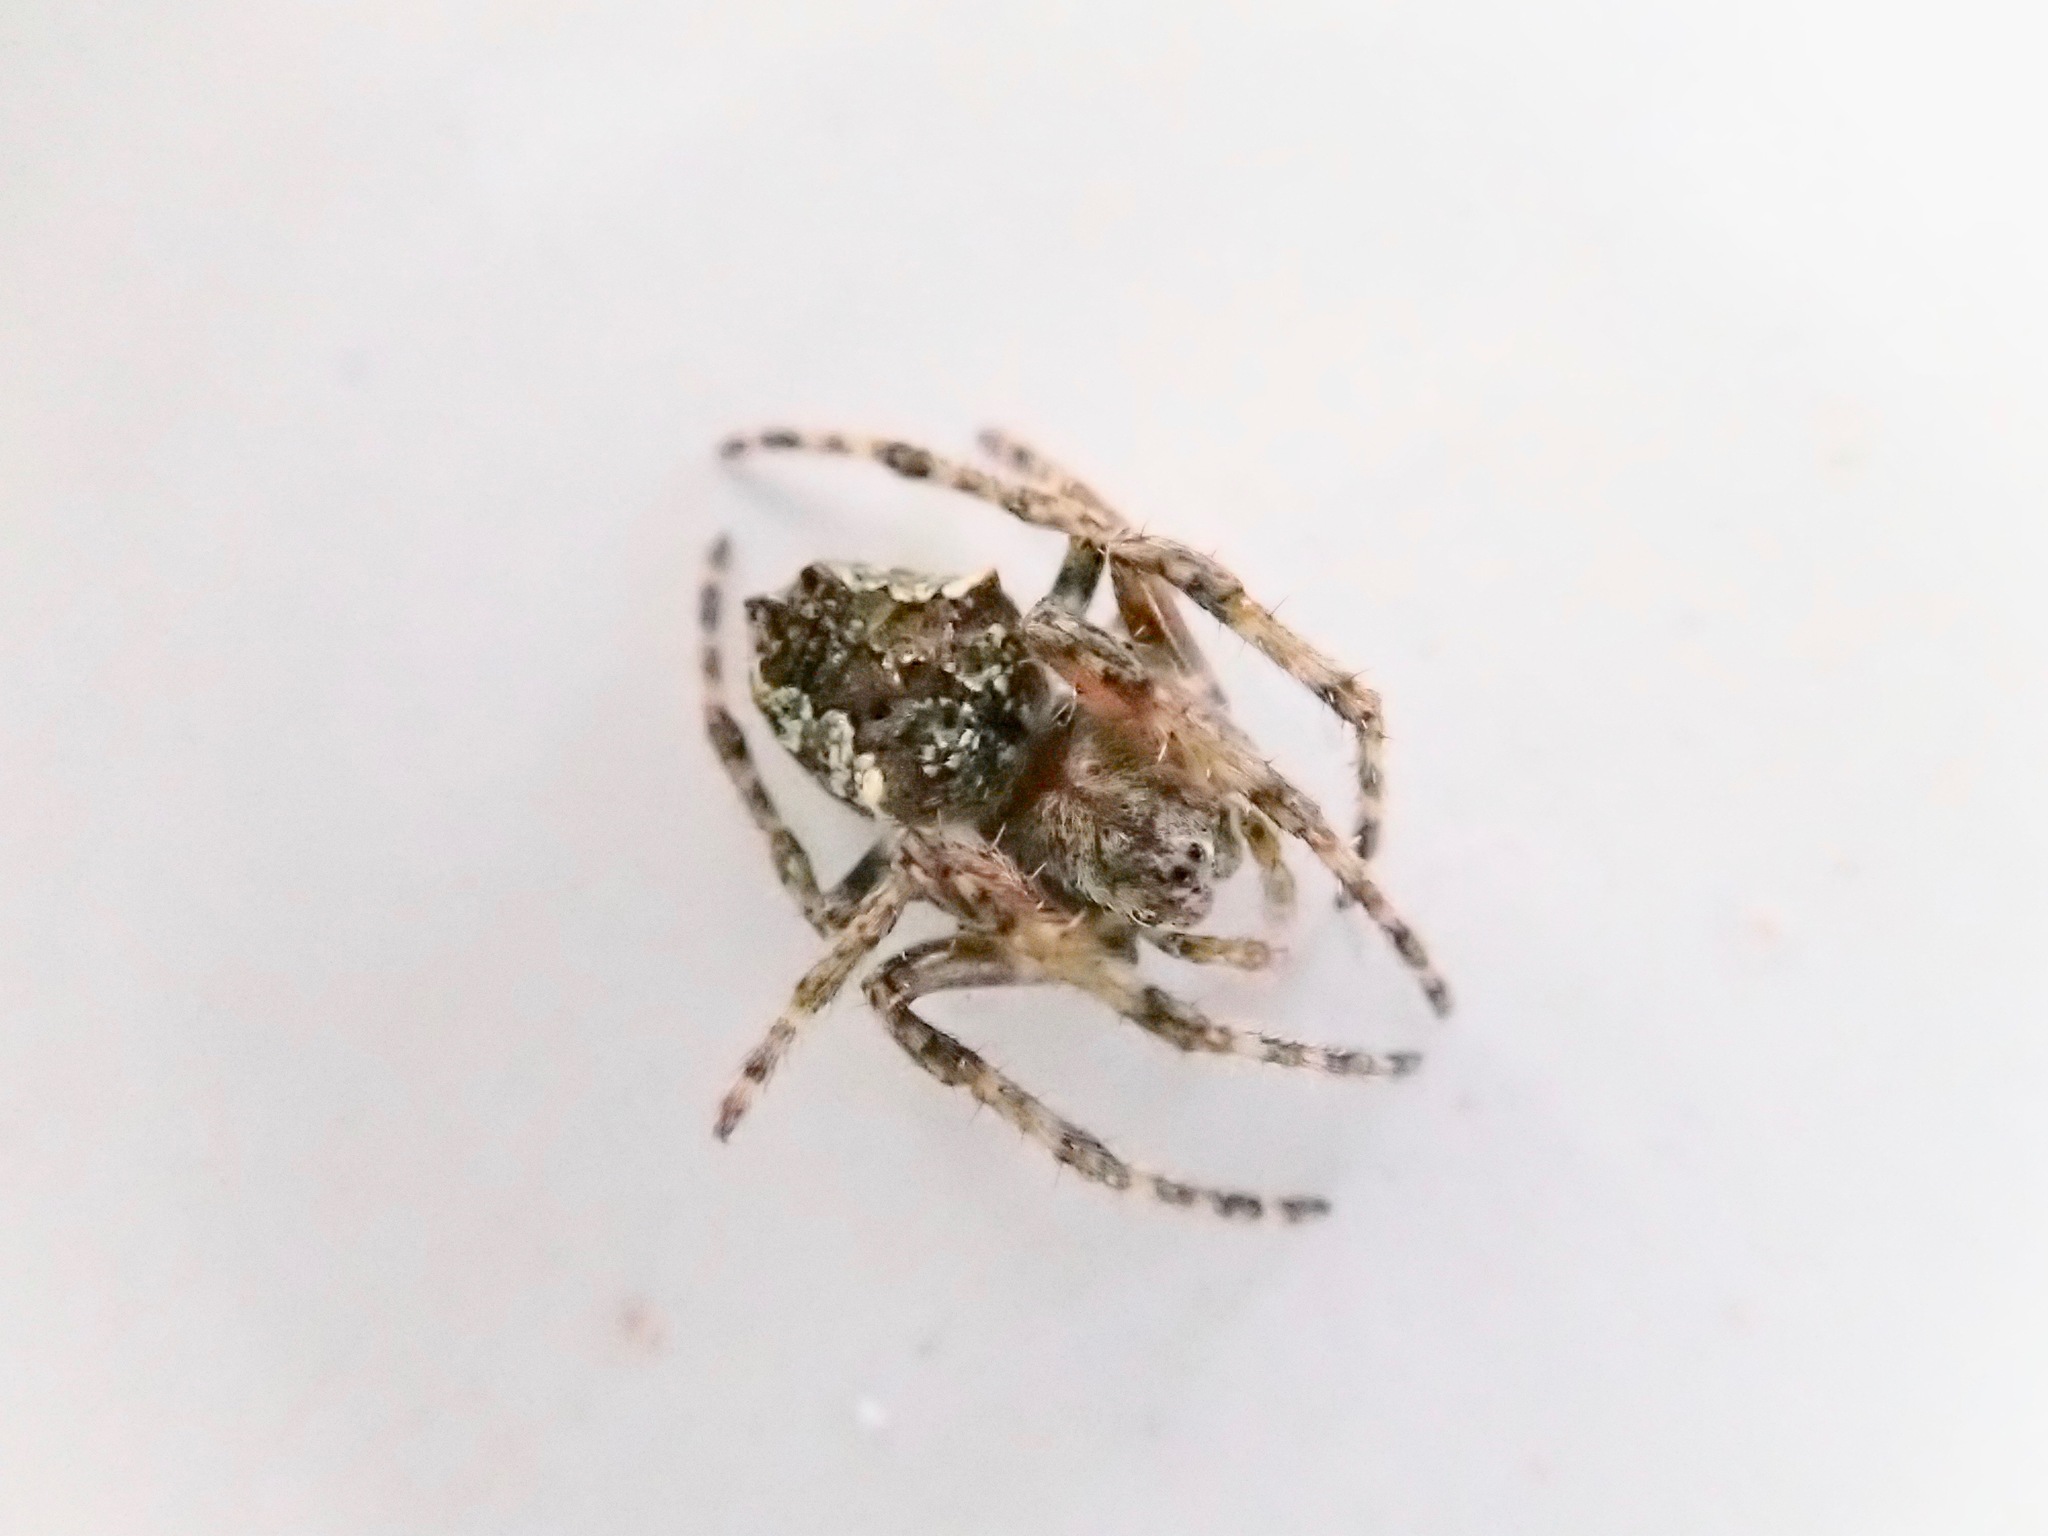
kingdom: Animalia
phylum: Arthropoda
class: Arachnida
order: Araneae
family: Araneidae
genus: Eriophora
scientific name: Eriophora pustulosa
